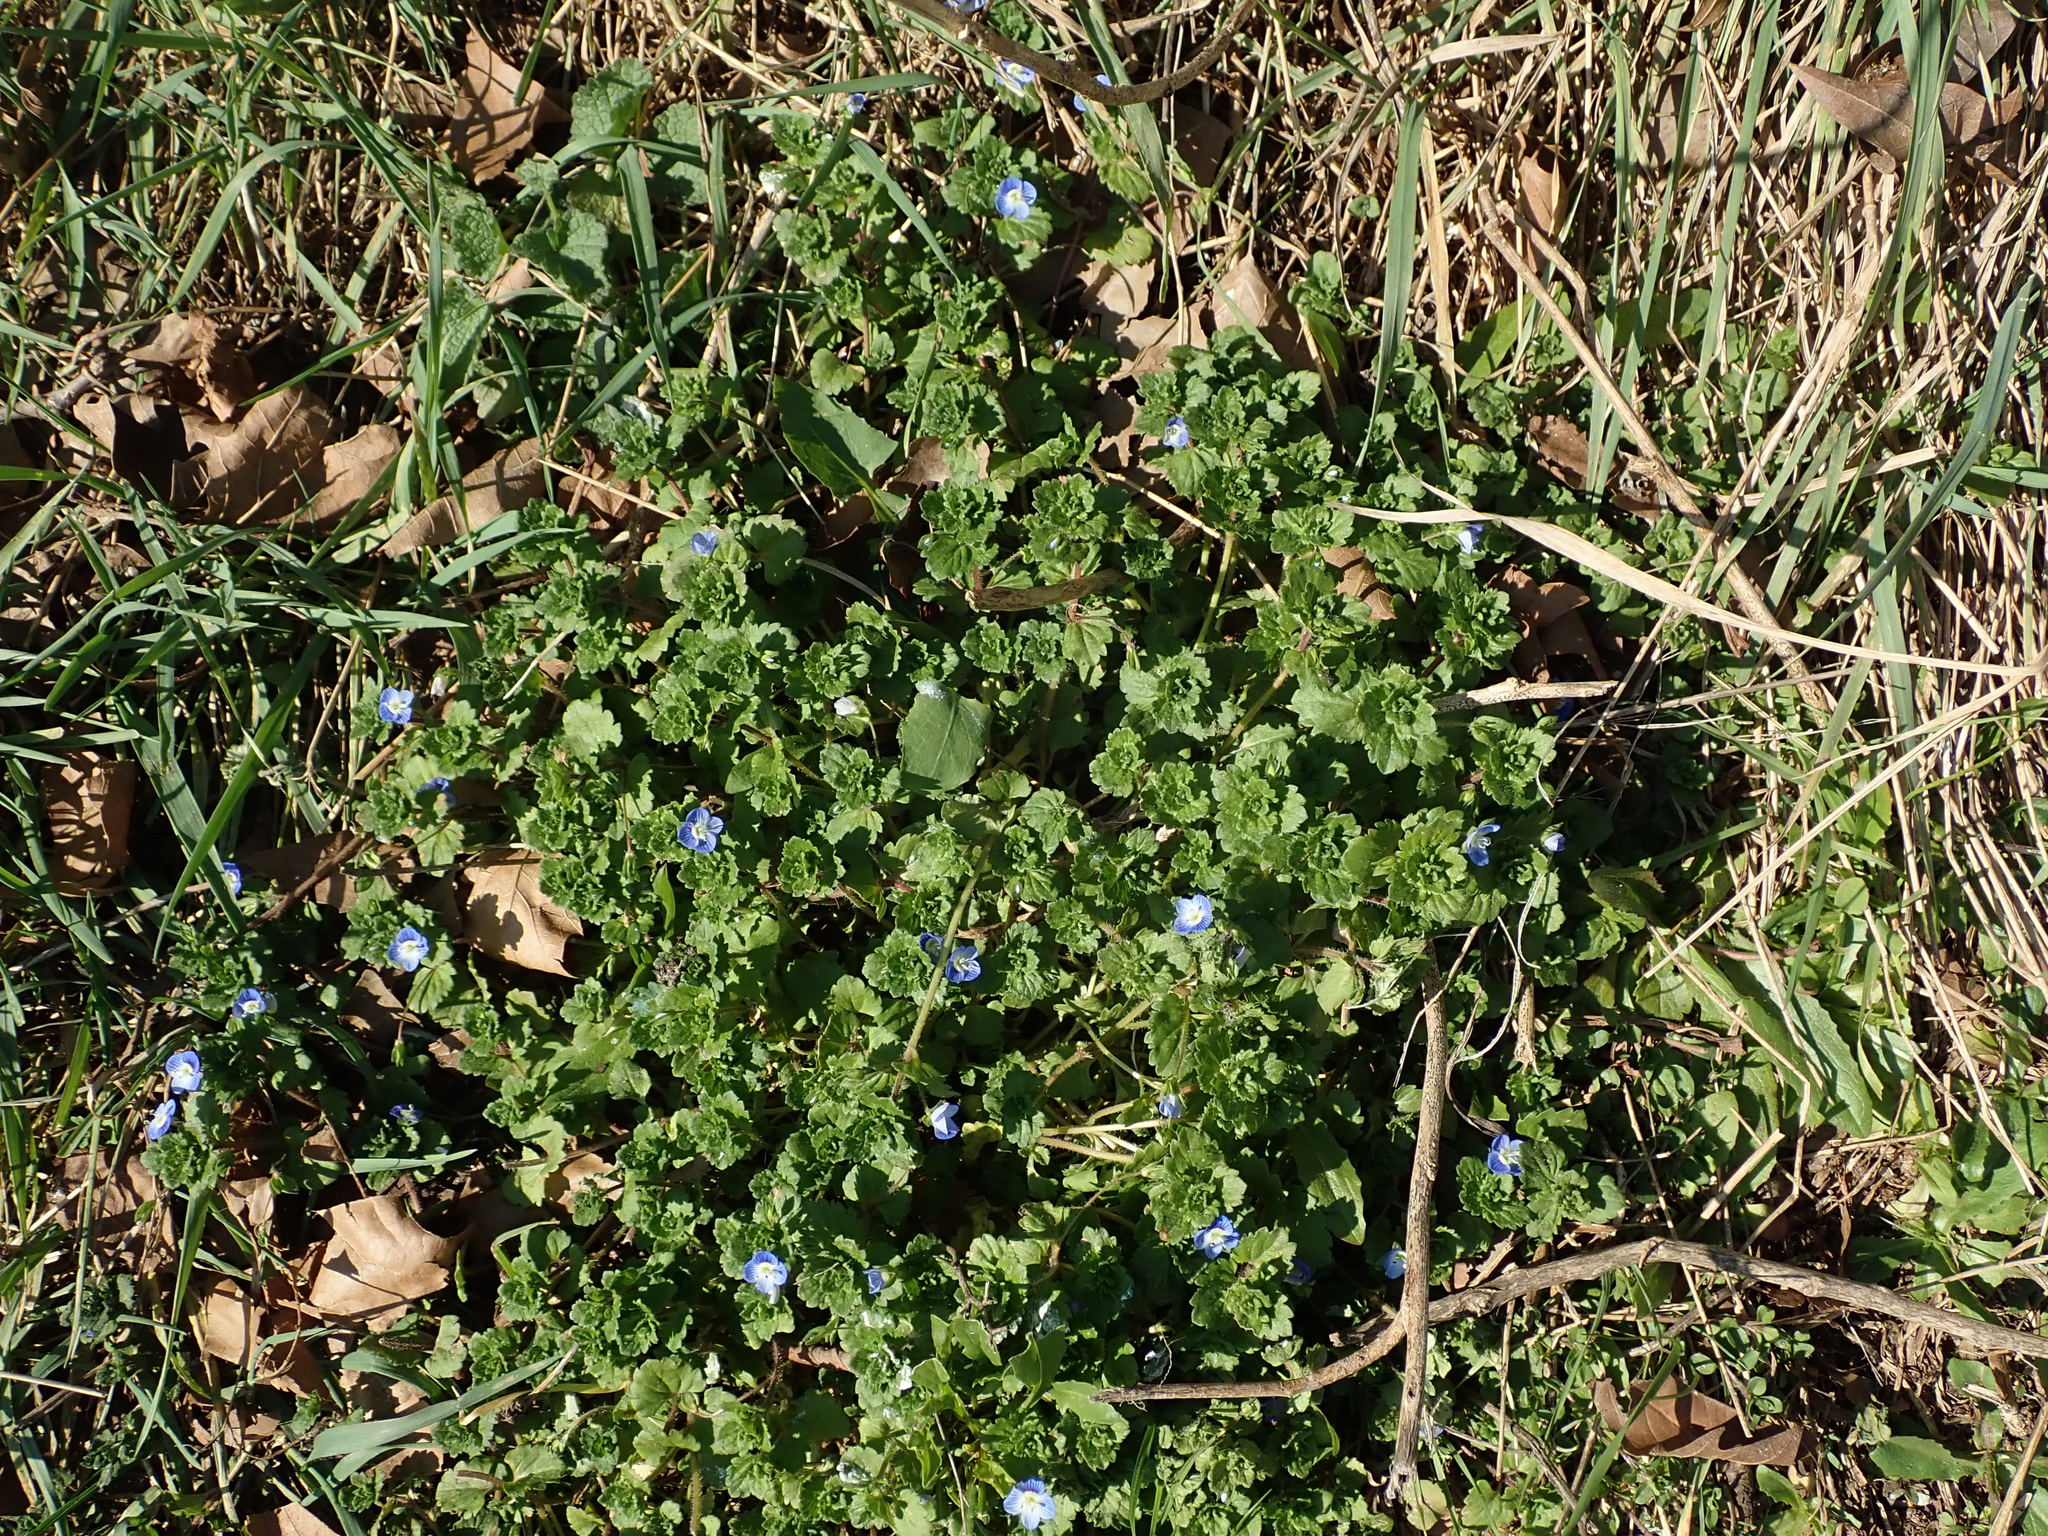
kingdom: Plantae
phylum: Tracheophyta
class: Magnoliopsida
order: Lamiales
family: Plantaginaceae
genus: Veronica
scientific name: Veronica persica
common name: Common field-speedwell
